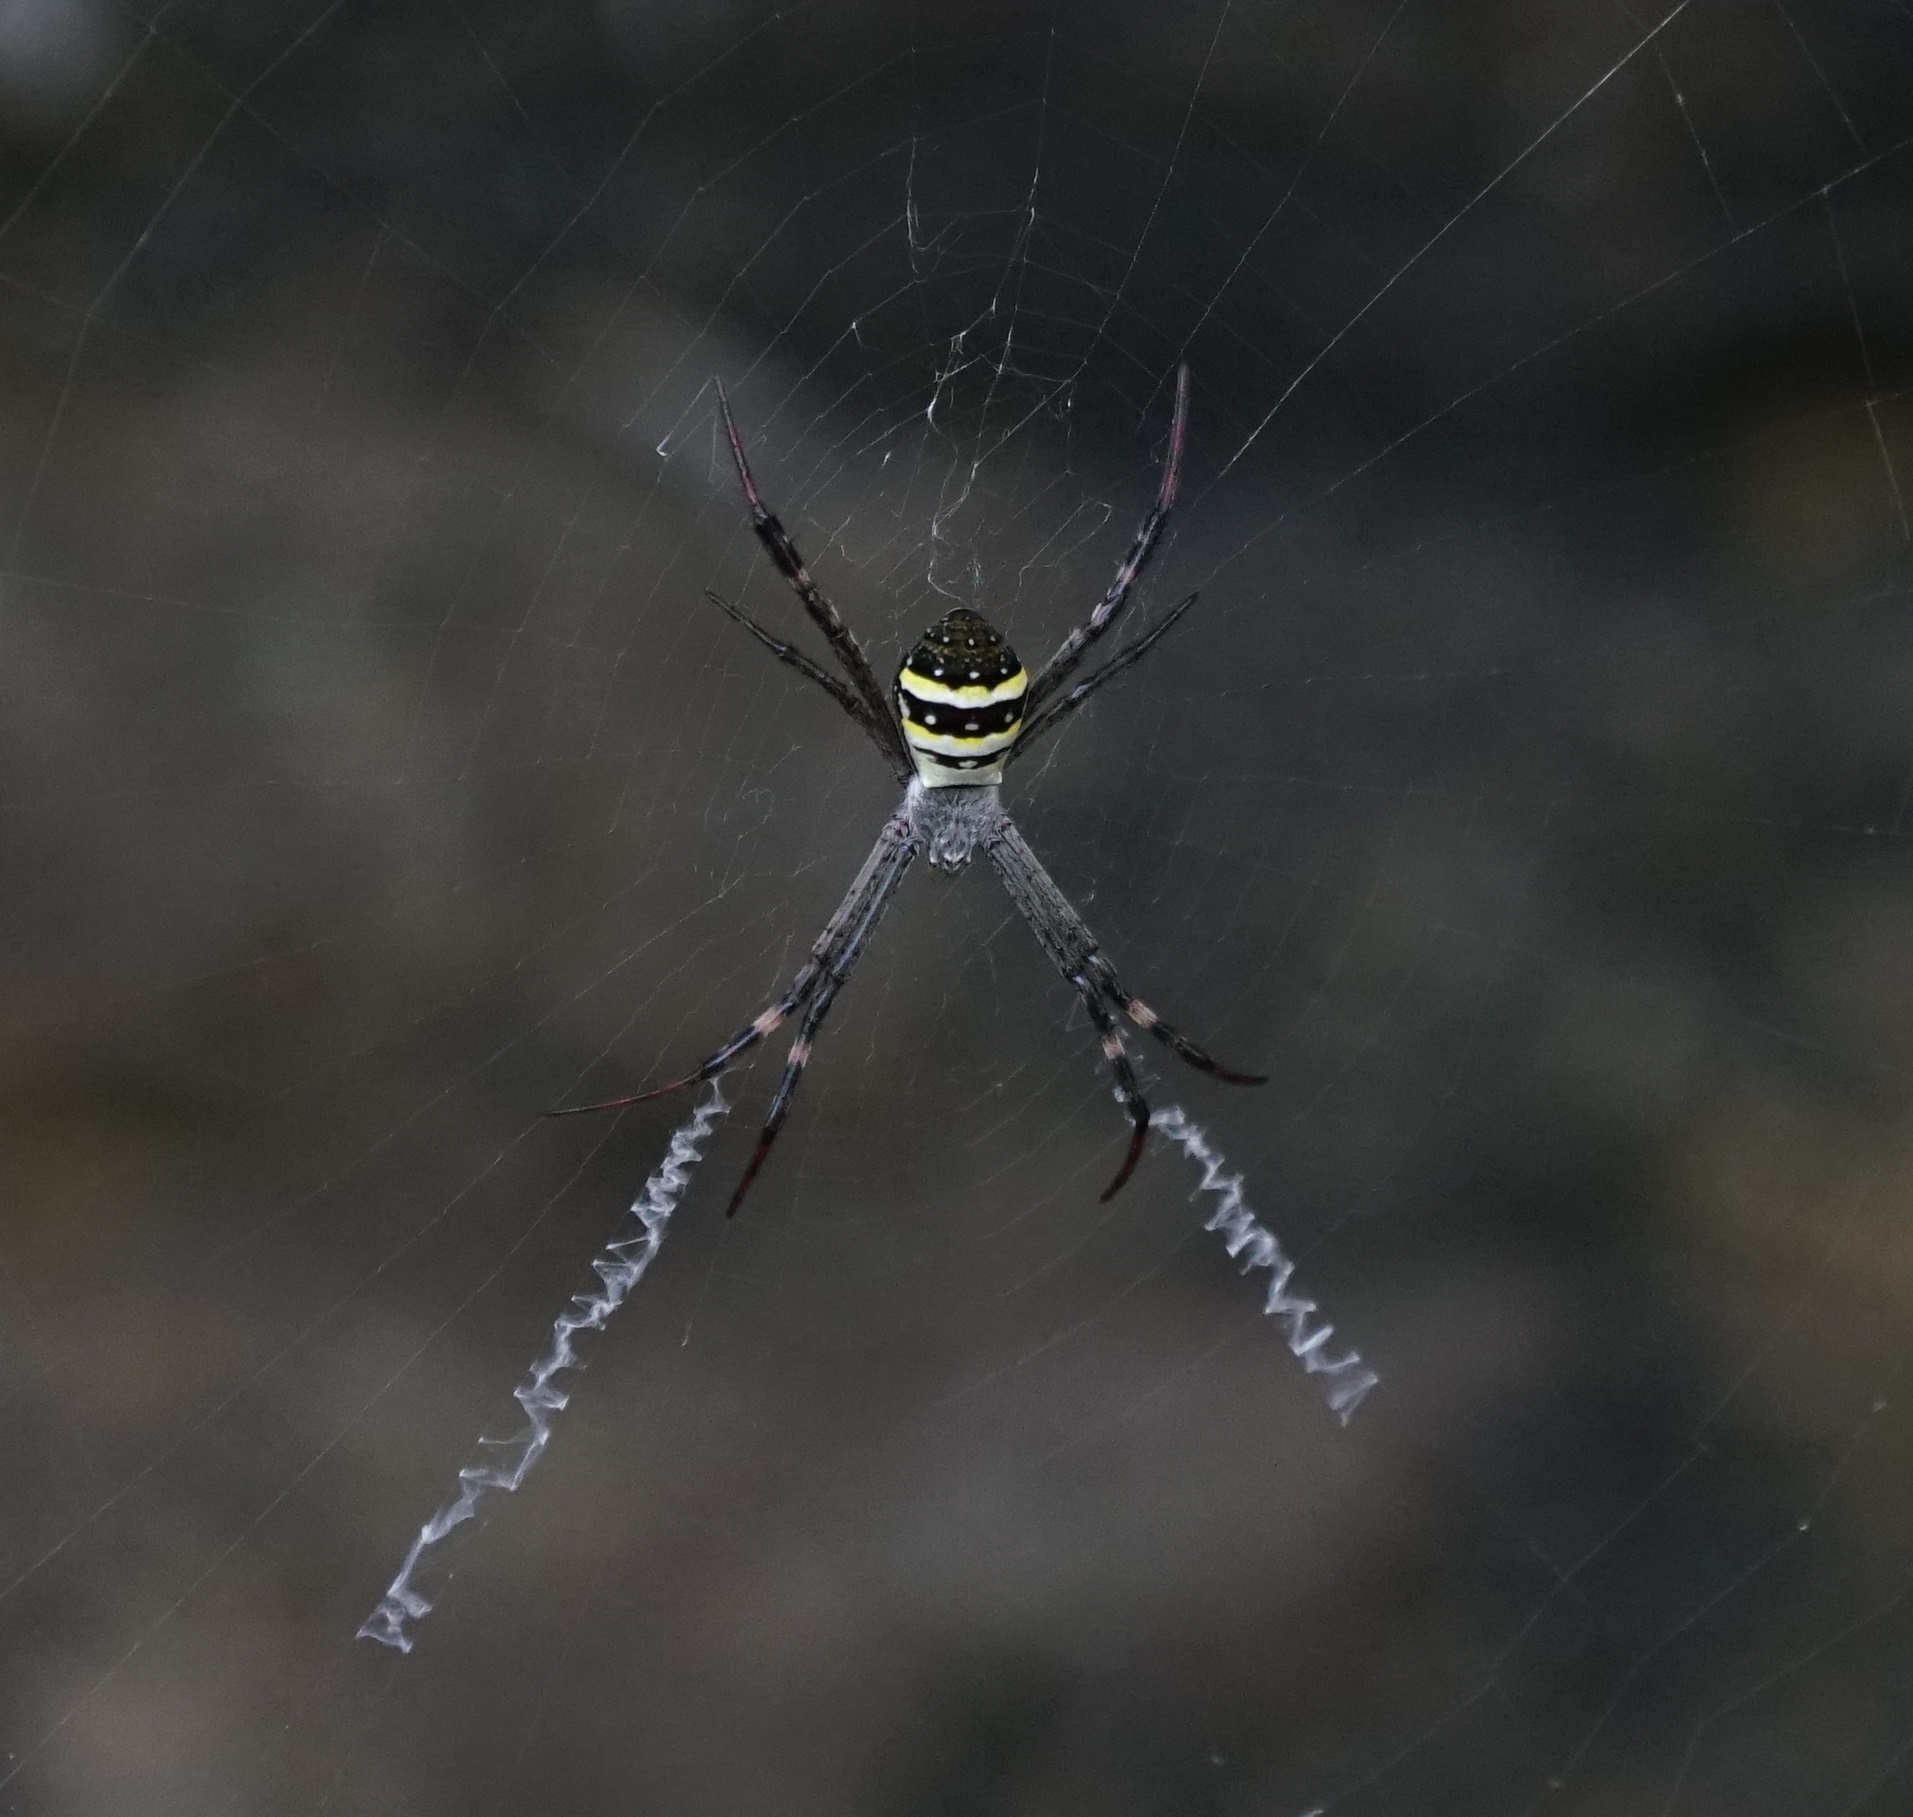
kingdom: Animalia
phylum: Arthropoda
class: Arachnida
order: Araneae
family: Araneidae
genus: Argiope
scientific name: Argiope keyserlingi
